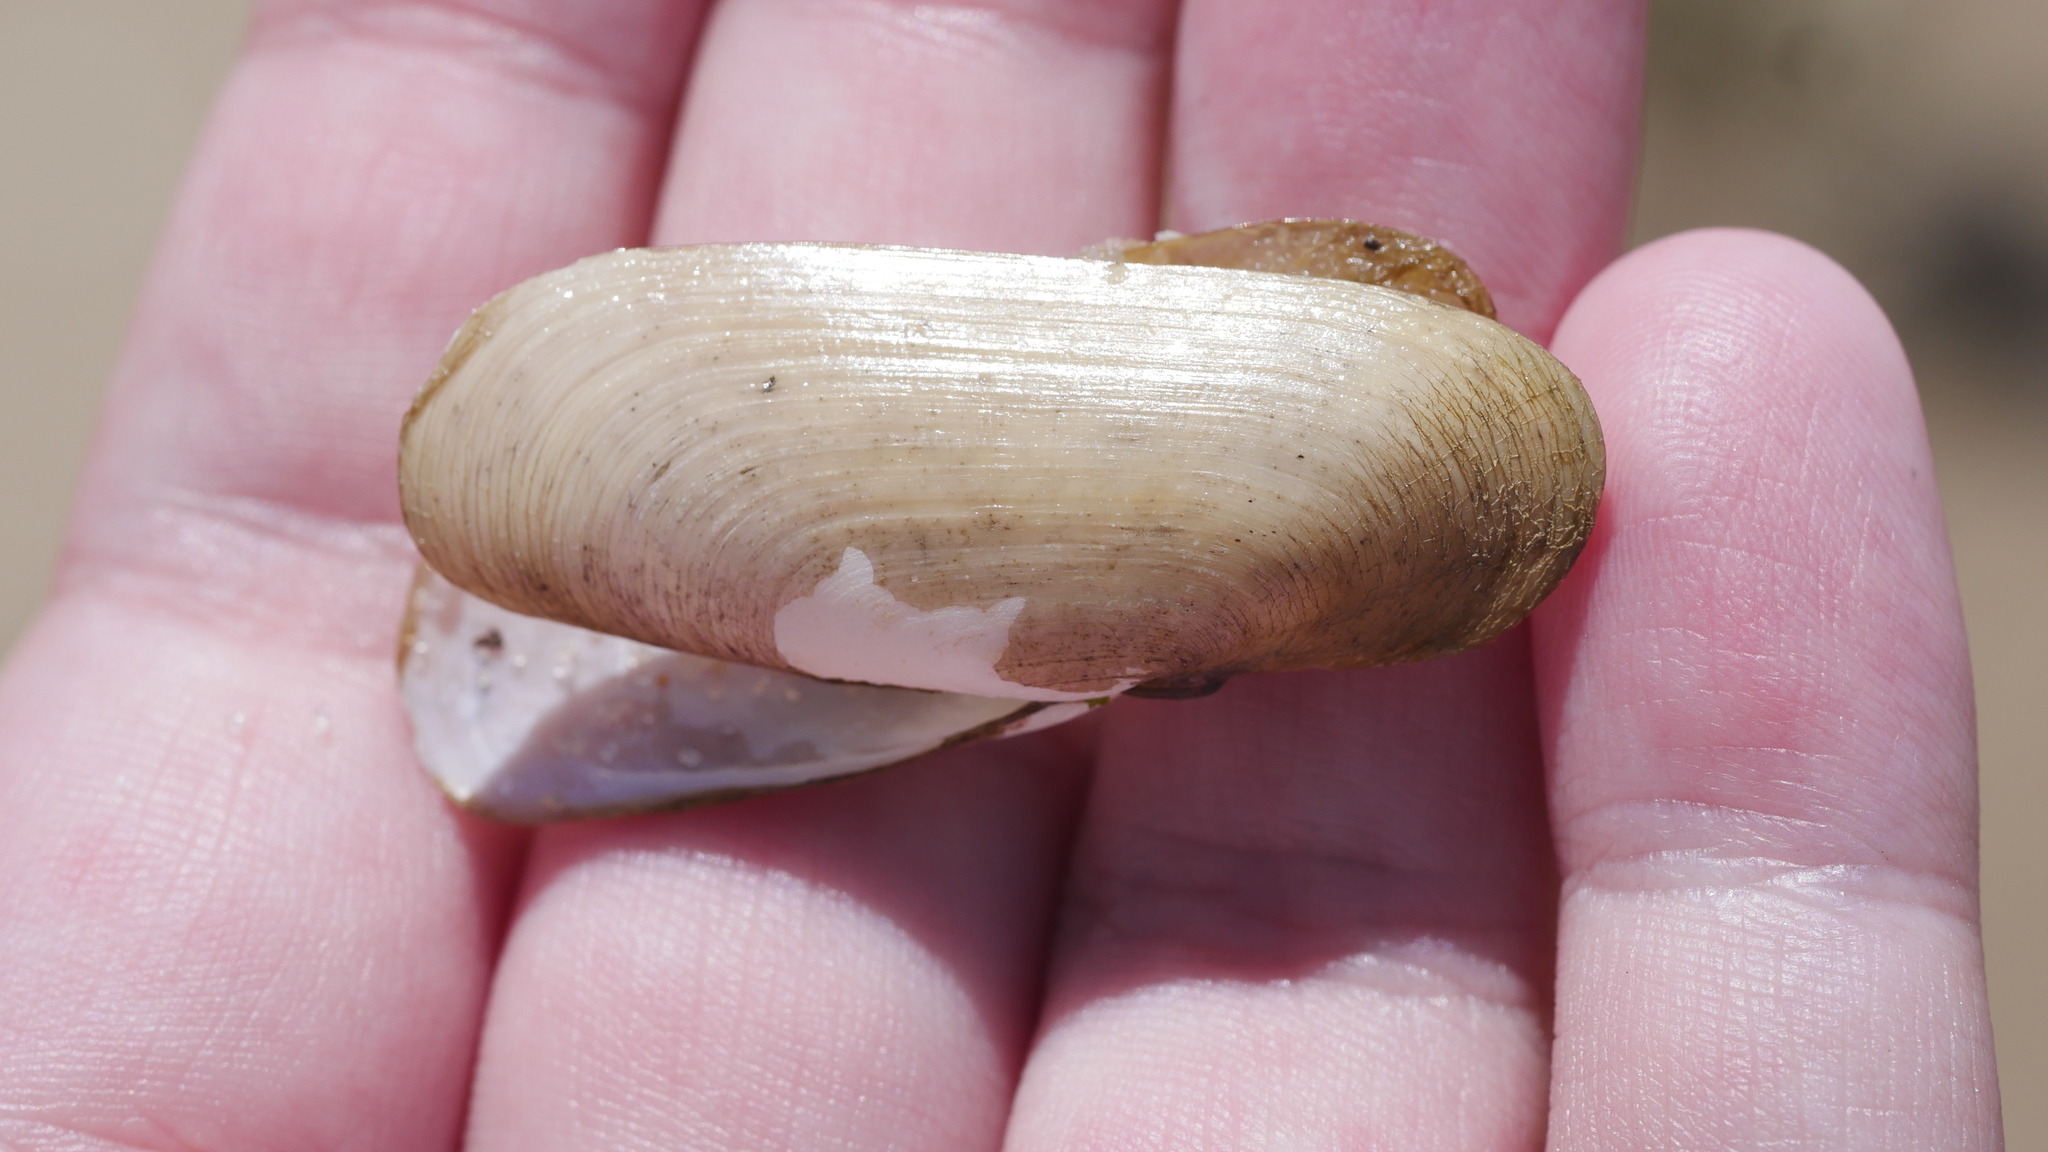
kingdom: Animalia
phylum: Mollusca
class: Bivalvia
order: Cardiida
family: Solecurtidae
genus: Tagelus
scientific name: Tagelus plebeius
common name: Stout tagelus
